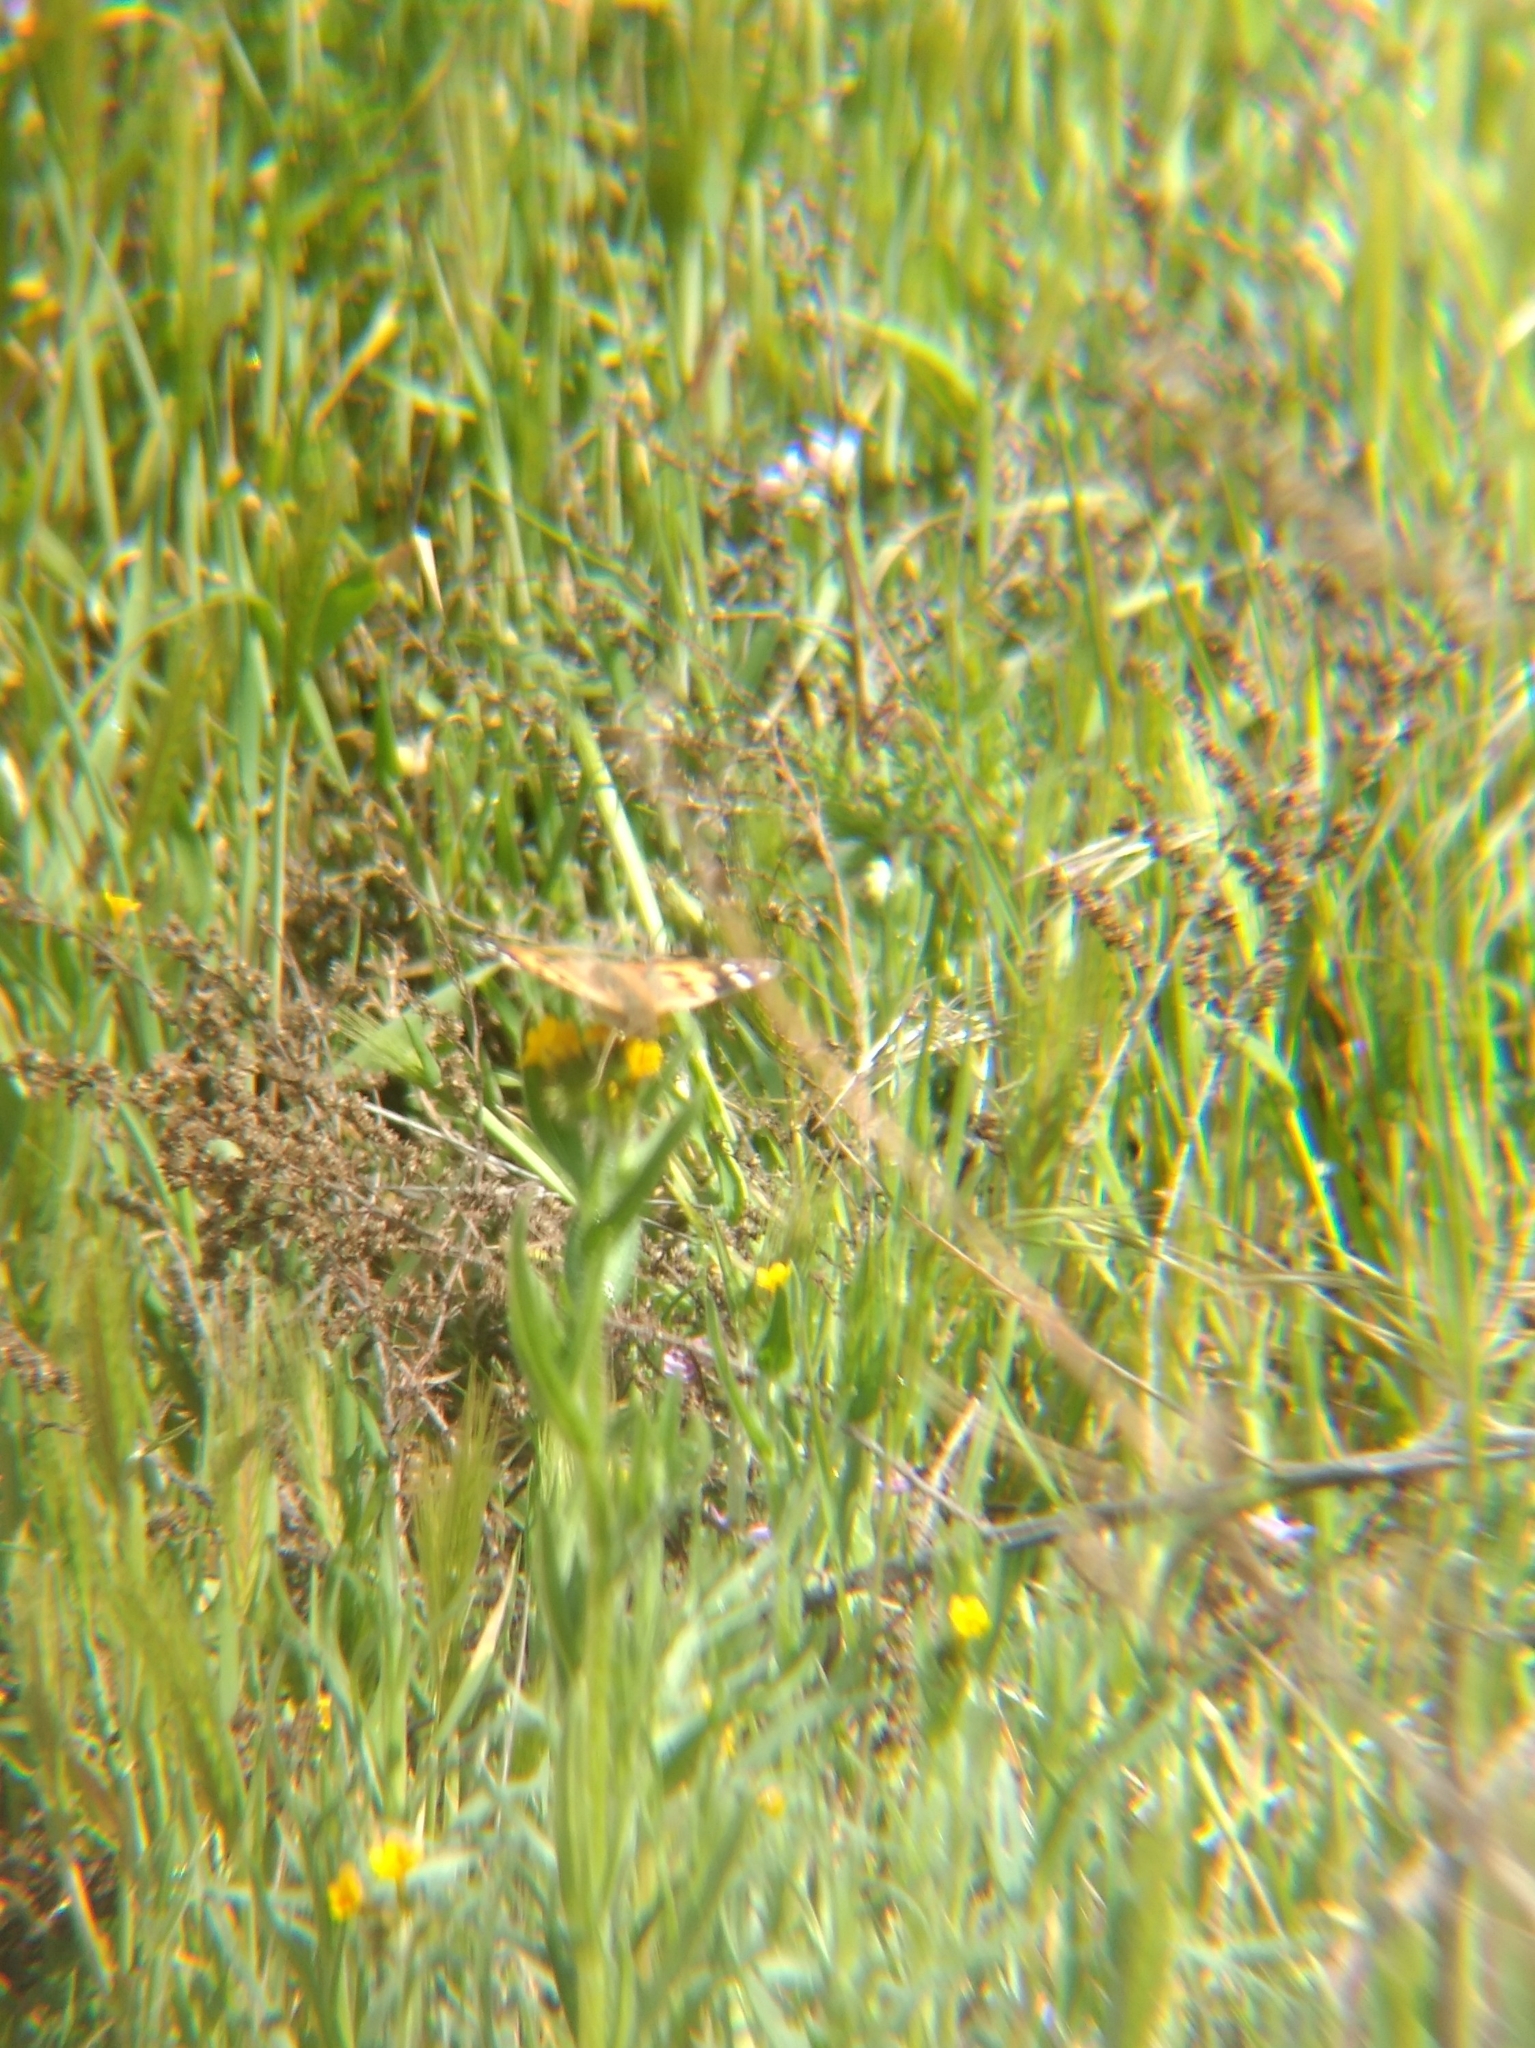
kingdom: Animalia
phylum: Arthropoda
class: Insecta
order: Lepidoptera
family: Nymphalidae
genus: Vanessa
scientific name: Vanessa cardui
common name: Painted lady
